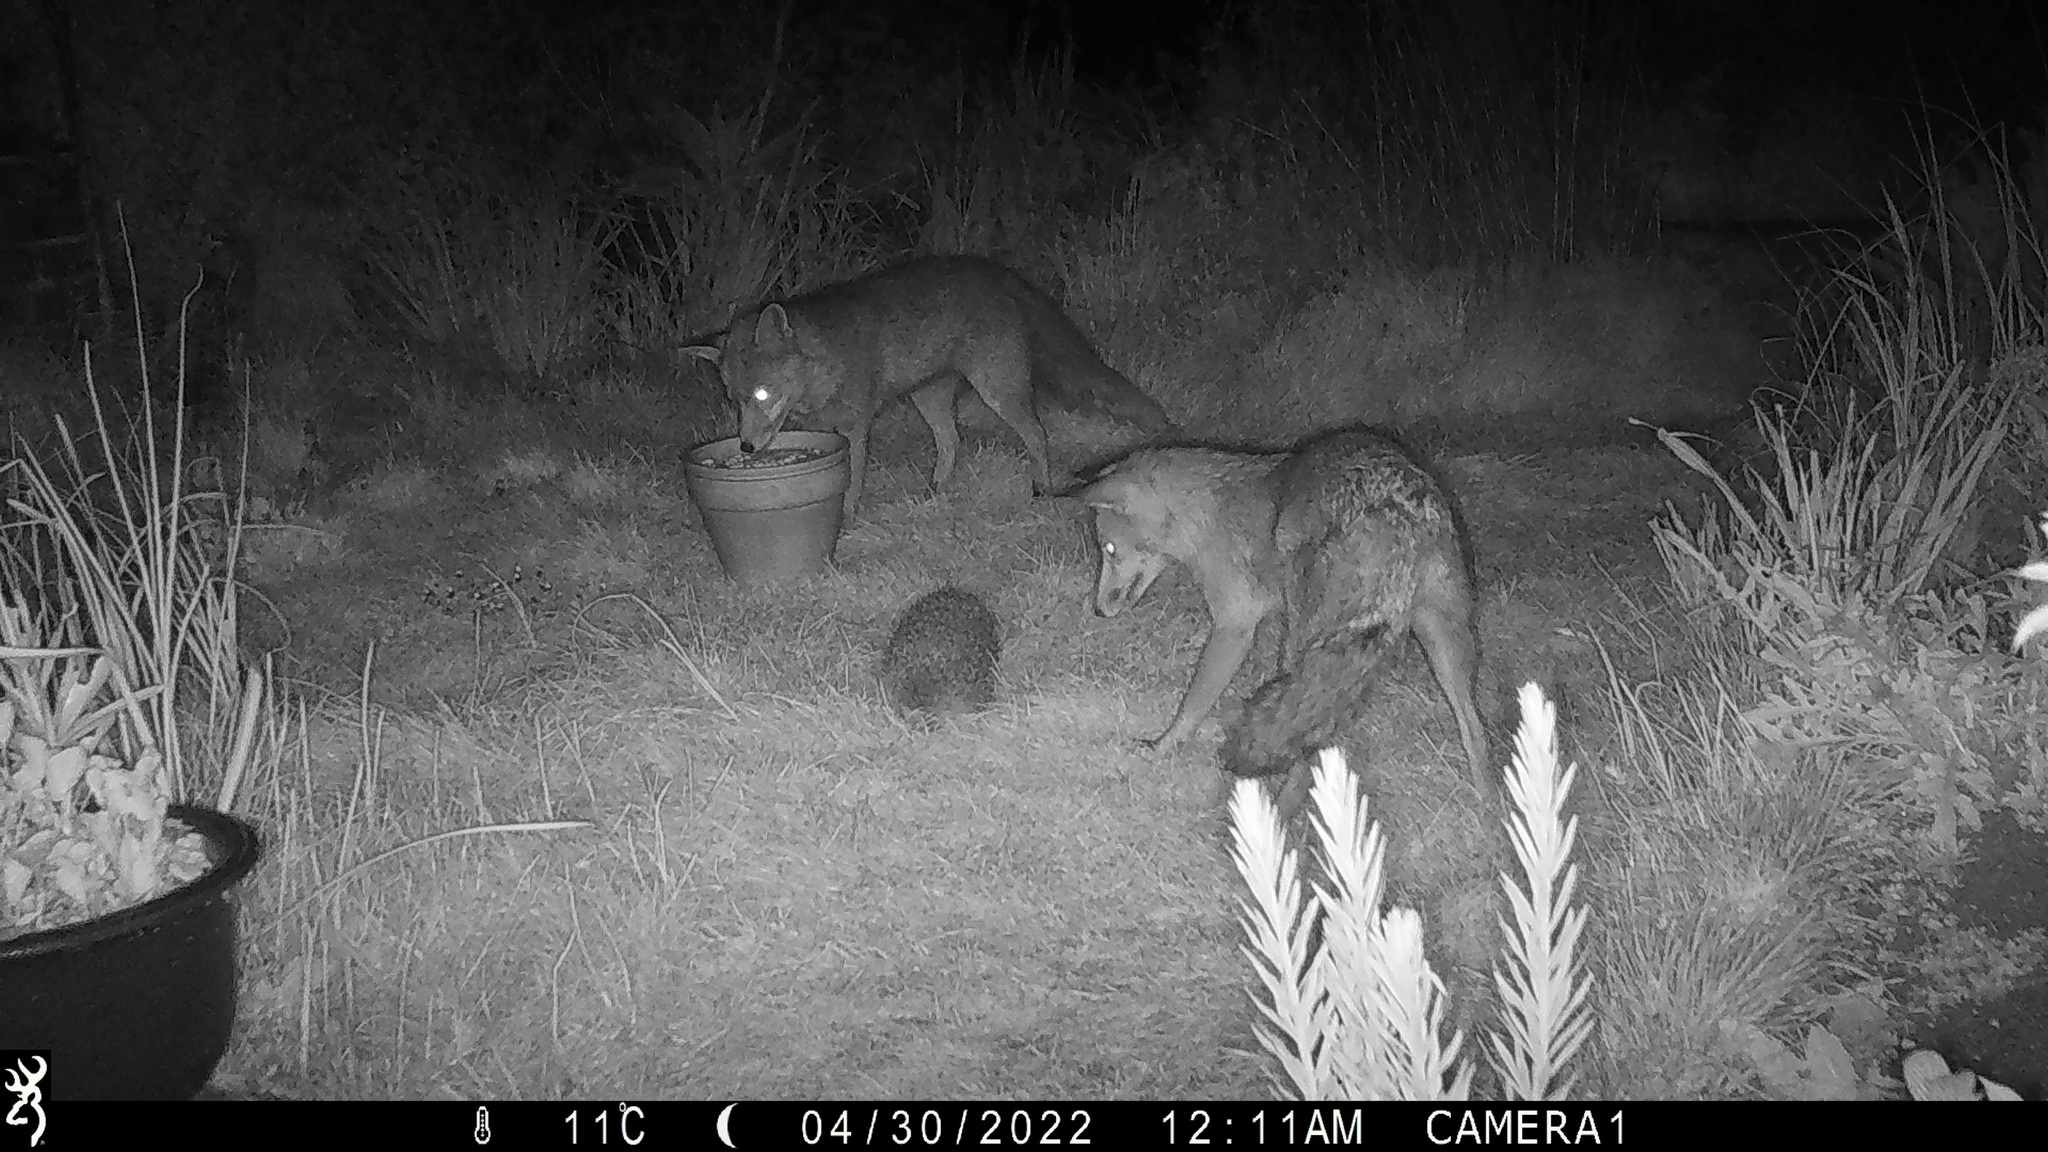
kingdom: Animalia
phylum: Chordata
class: Mammalia
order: Carnivora
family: Canidae
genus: Vulpes
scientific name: Vulpes vulpes
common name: Red fox
